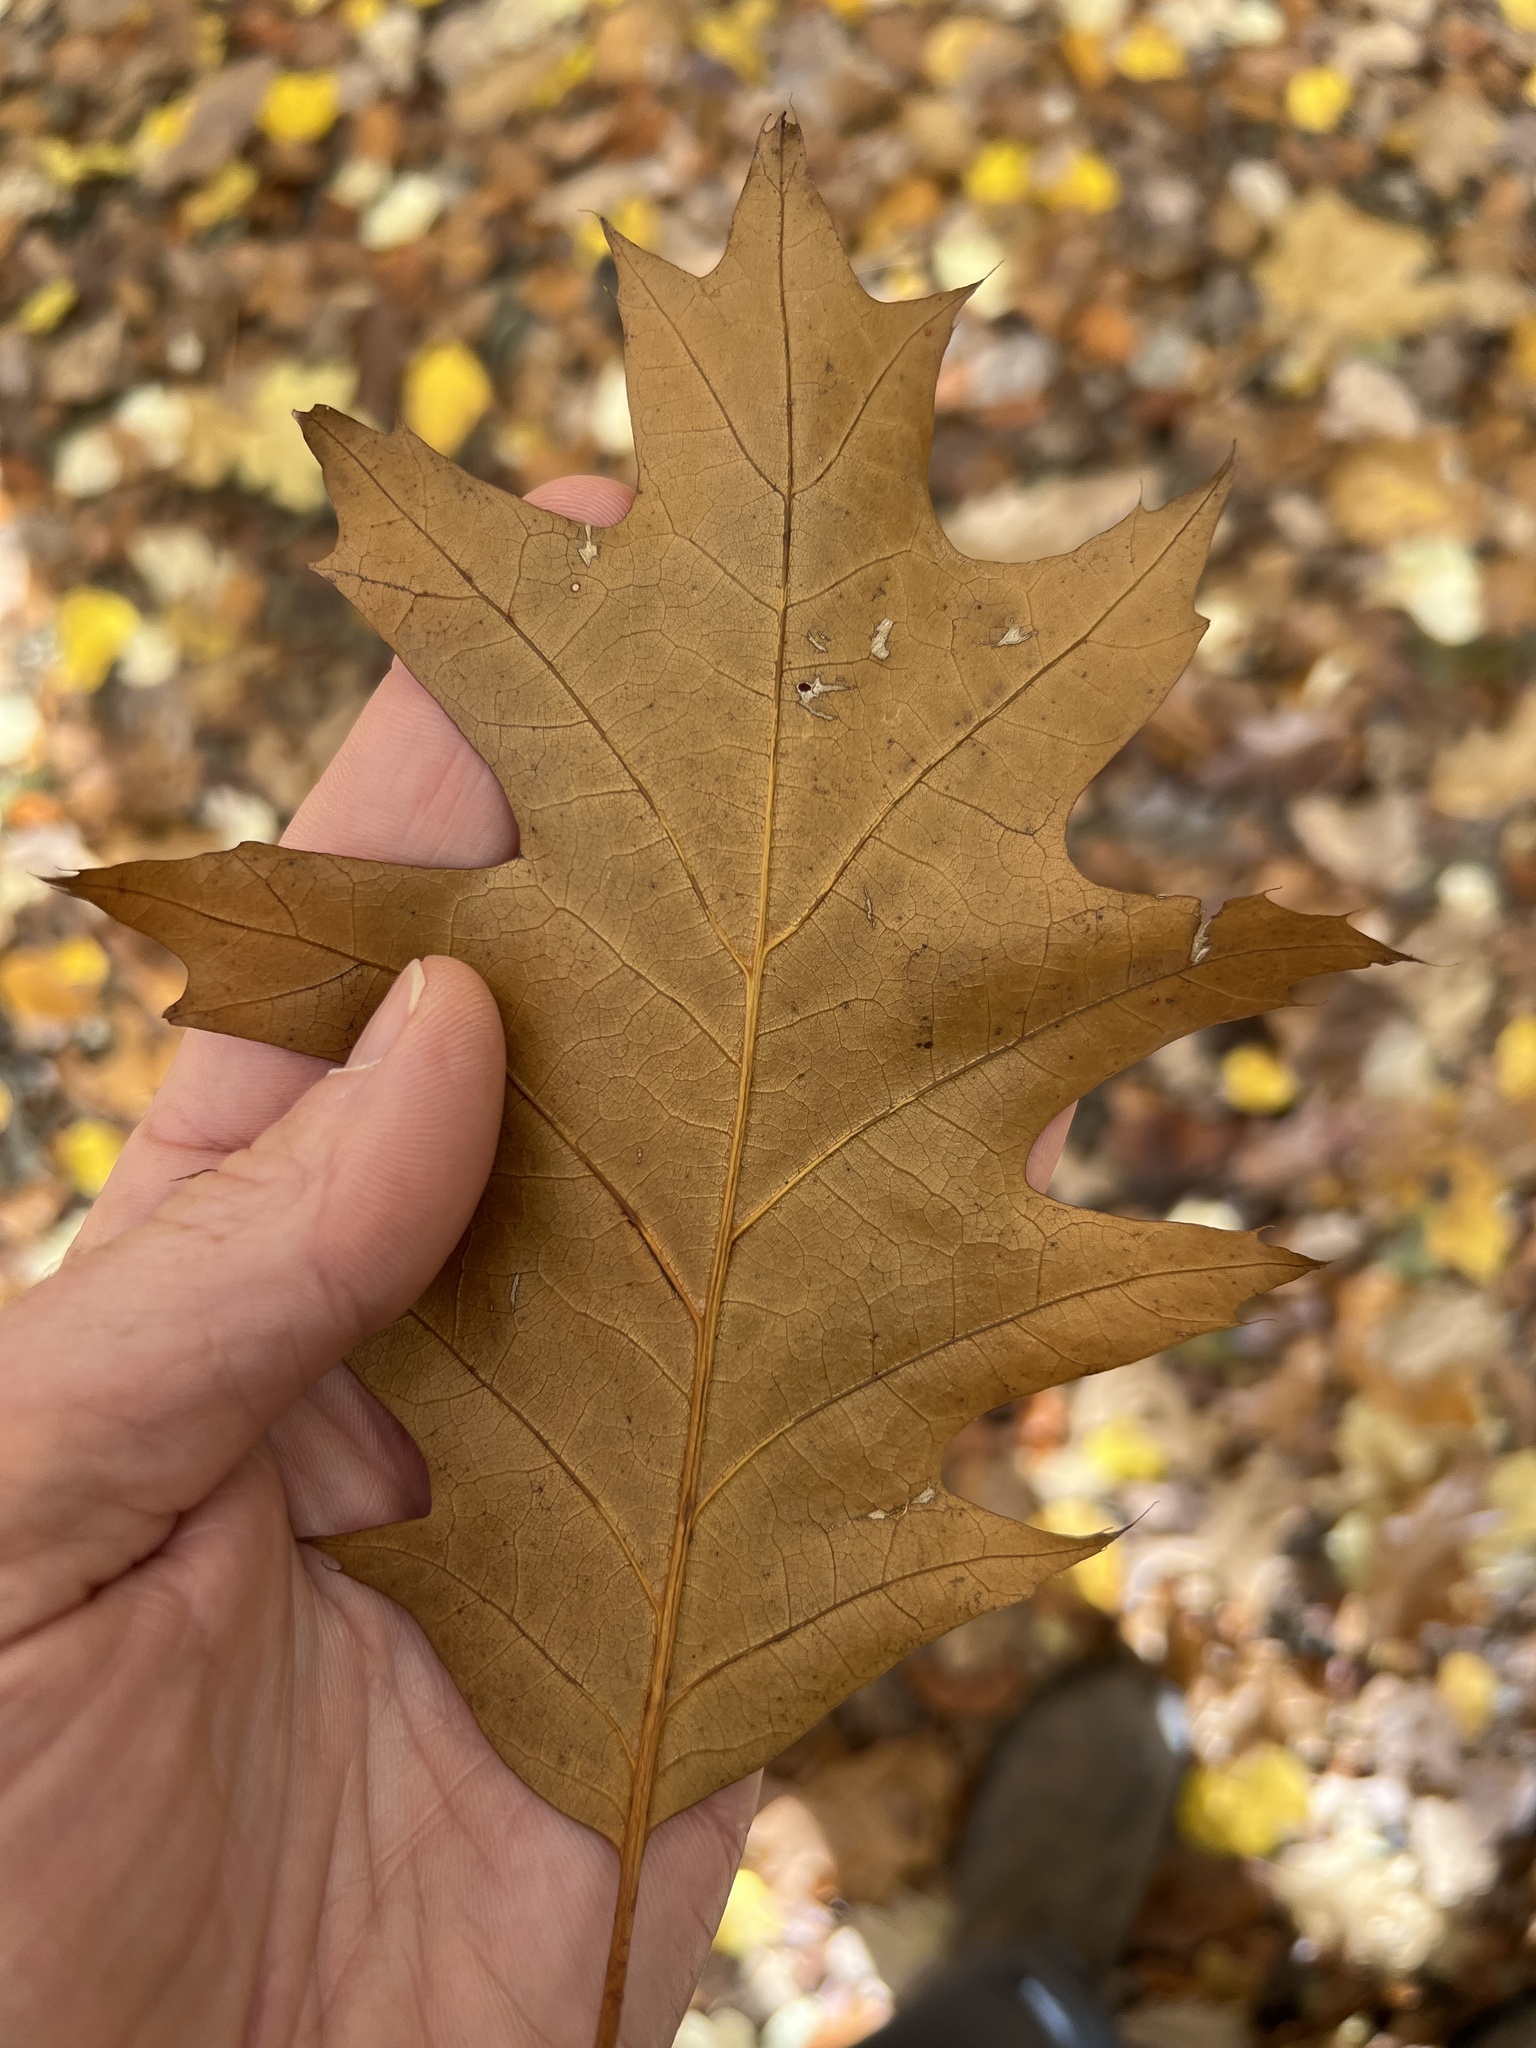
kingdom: Plantae
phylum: Tracheophyta
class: Magnoliopsida
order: Fagales
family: Fagaceae
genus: Quercus
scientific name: Quercus rubra
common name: Red oak
